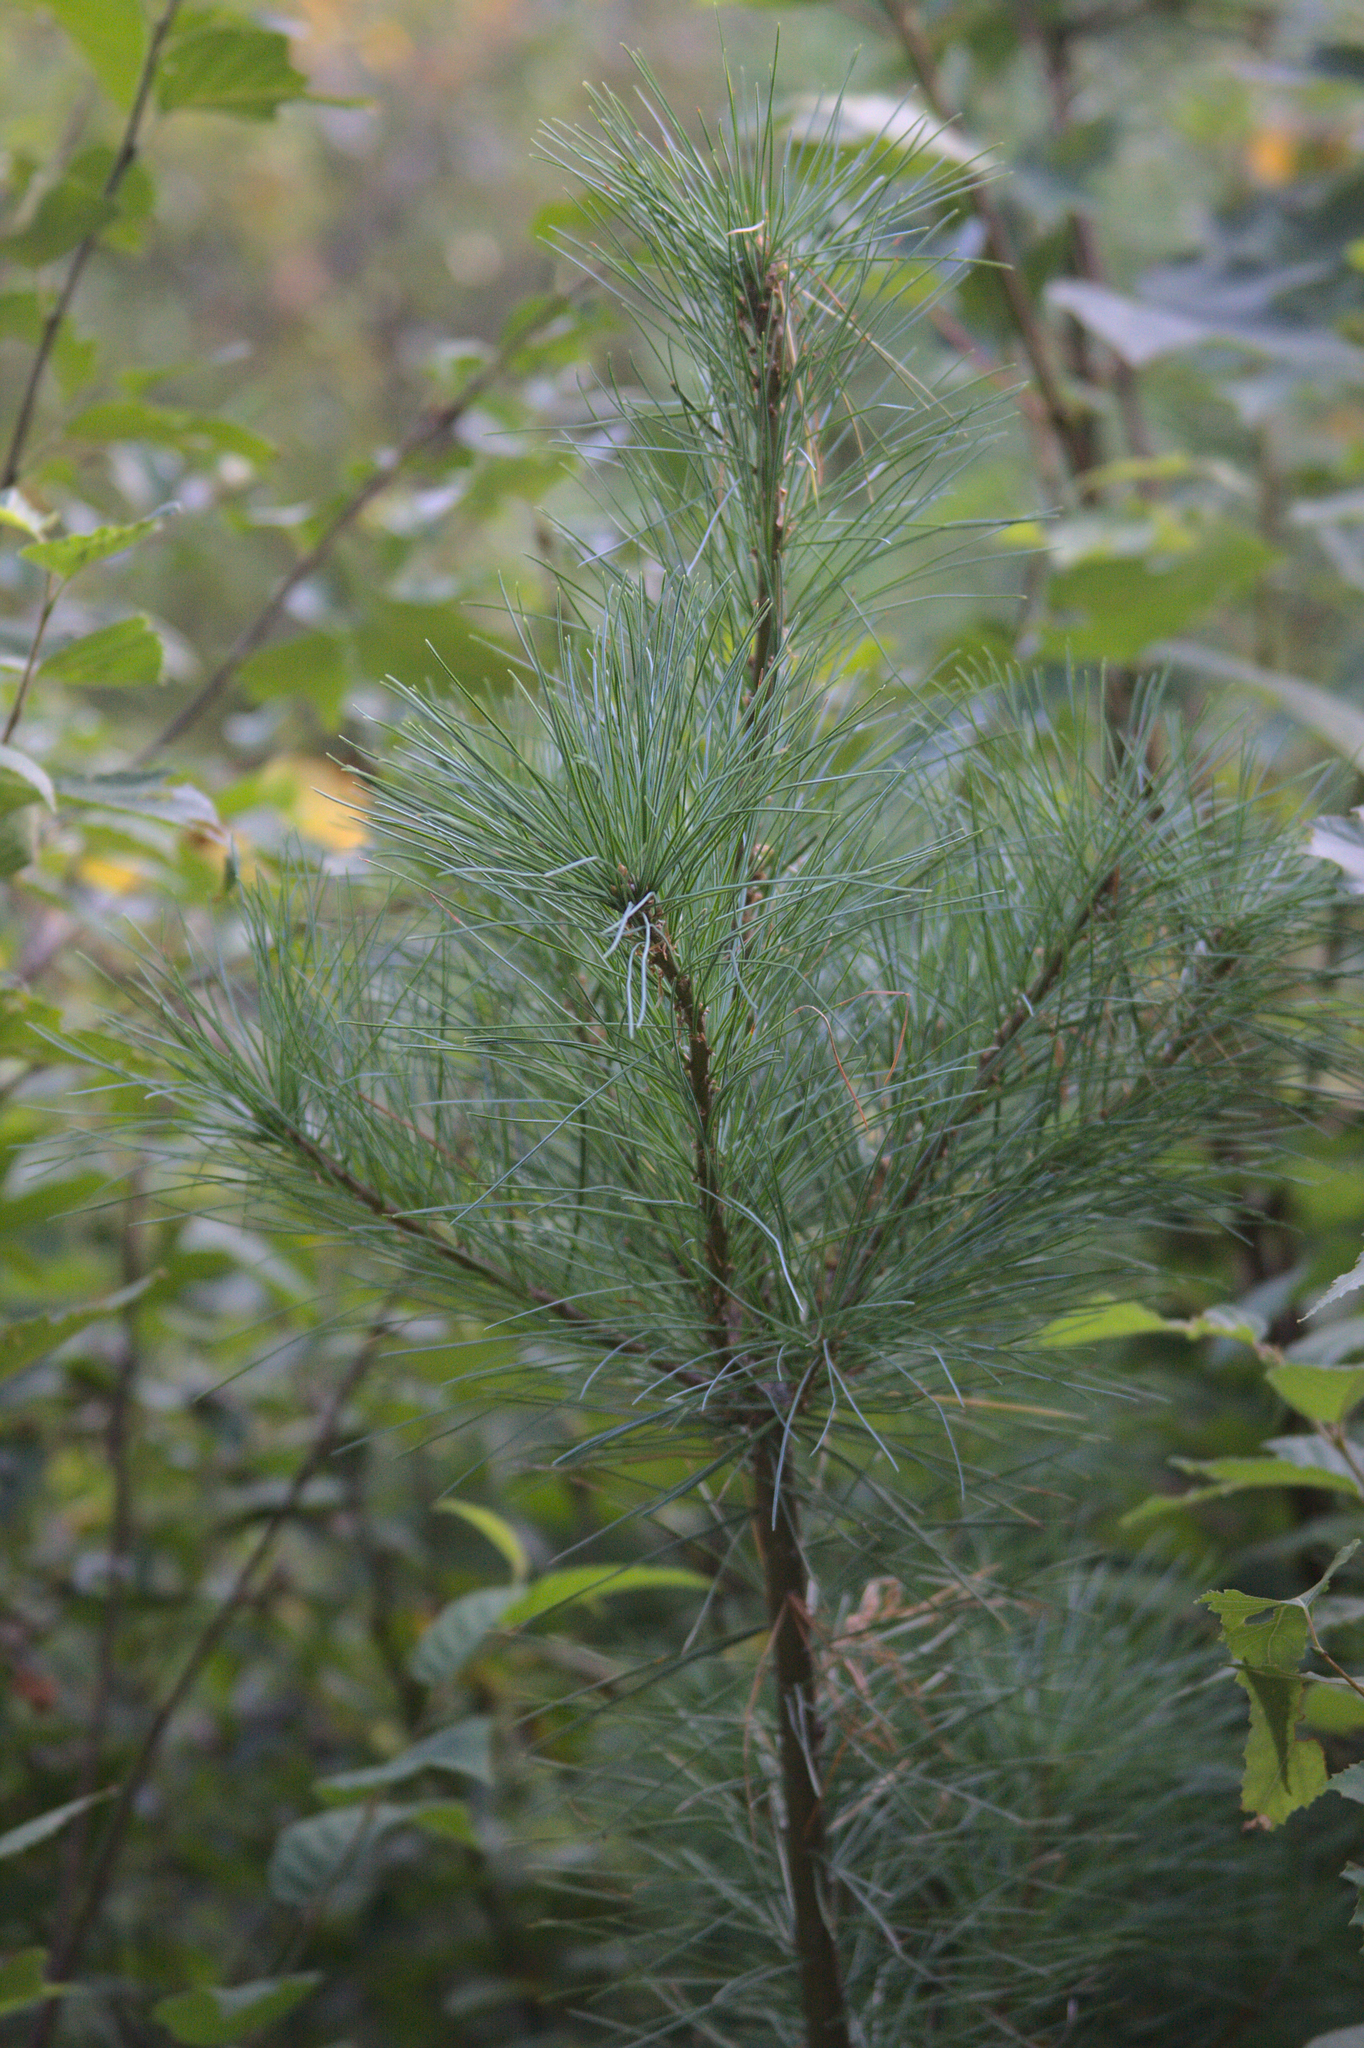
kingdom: Plantae
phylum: Tracheophyta
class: Pinopsida
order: Pinales
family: Pinaceae
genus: Pinus
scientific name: Pinus strobus
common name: Weymouth pine
